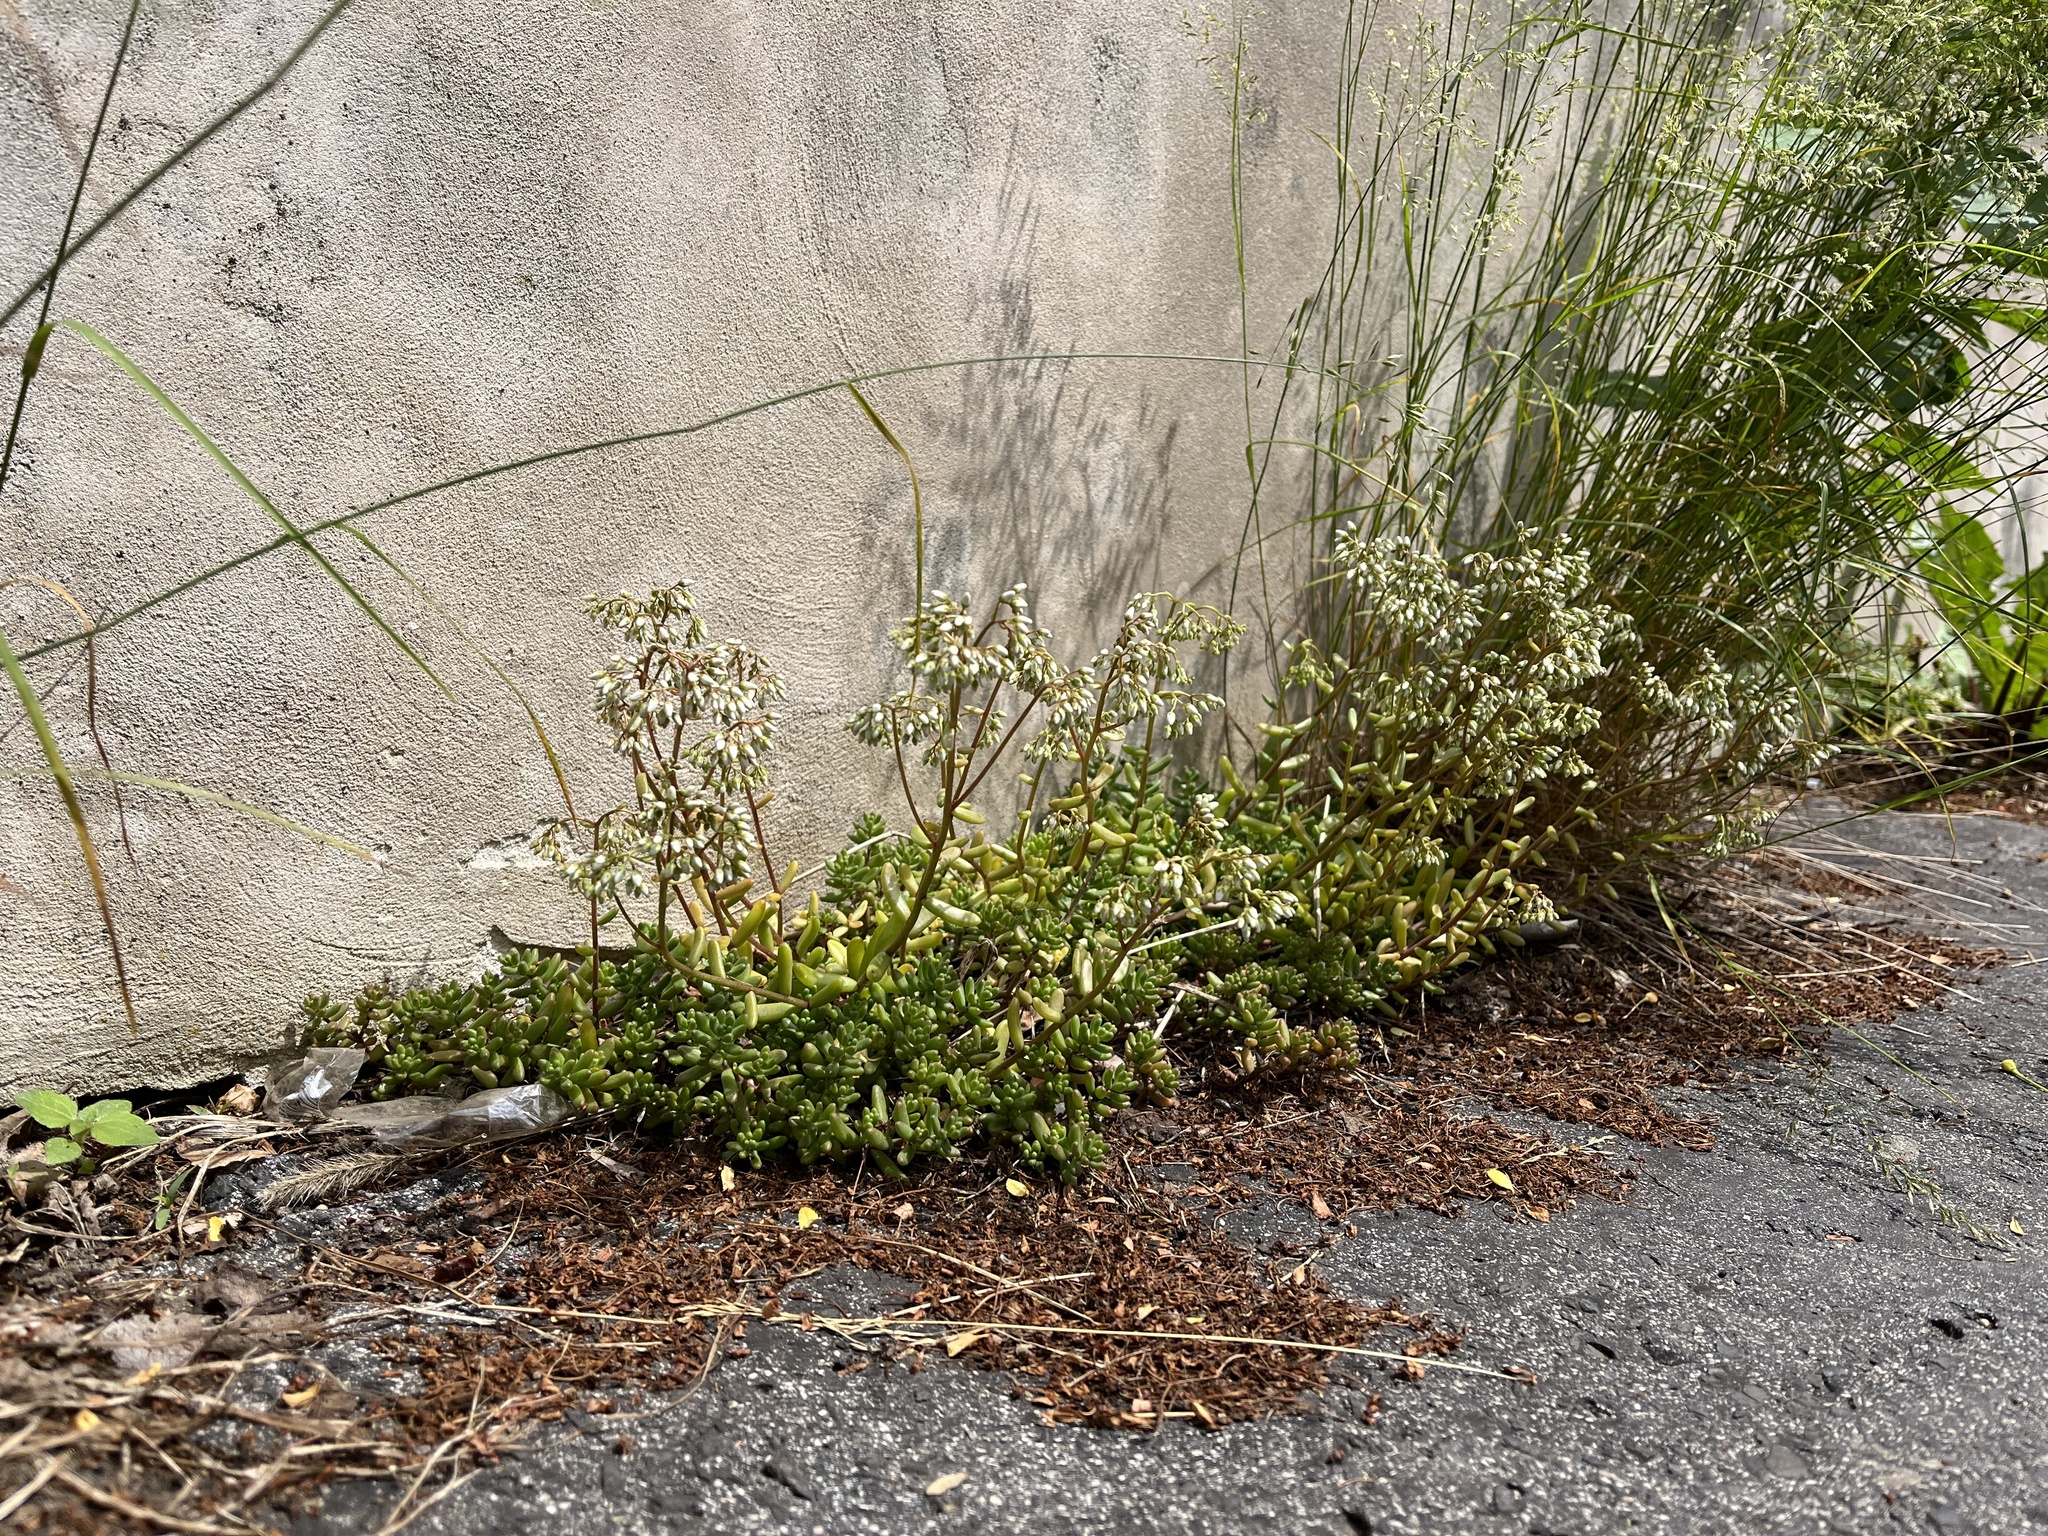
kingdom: Plantae
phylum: Tracheophyta
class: Magnoliopsida
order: Saxifragales
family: Crassulaceae
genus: Sedum
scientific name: Sedum album
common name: White stonecrop
